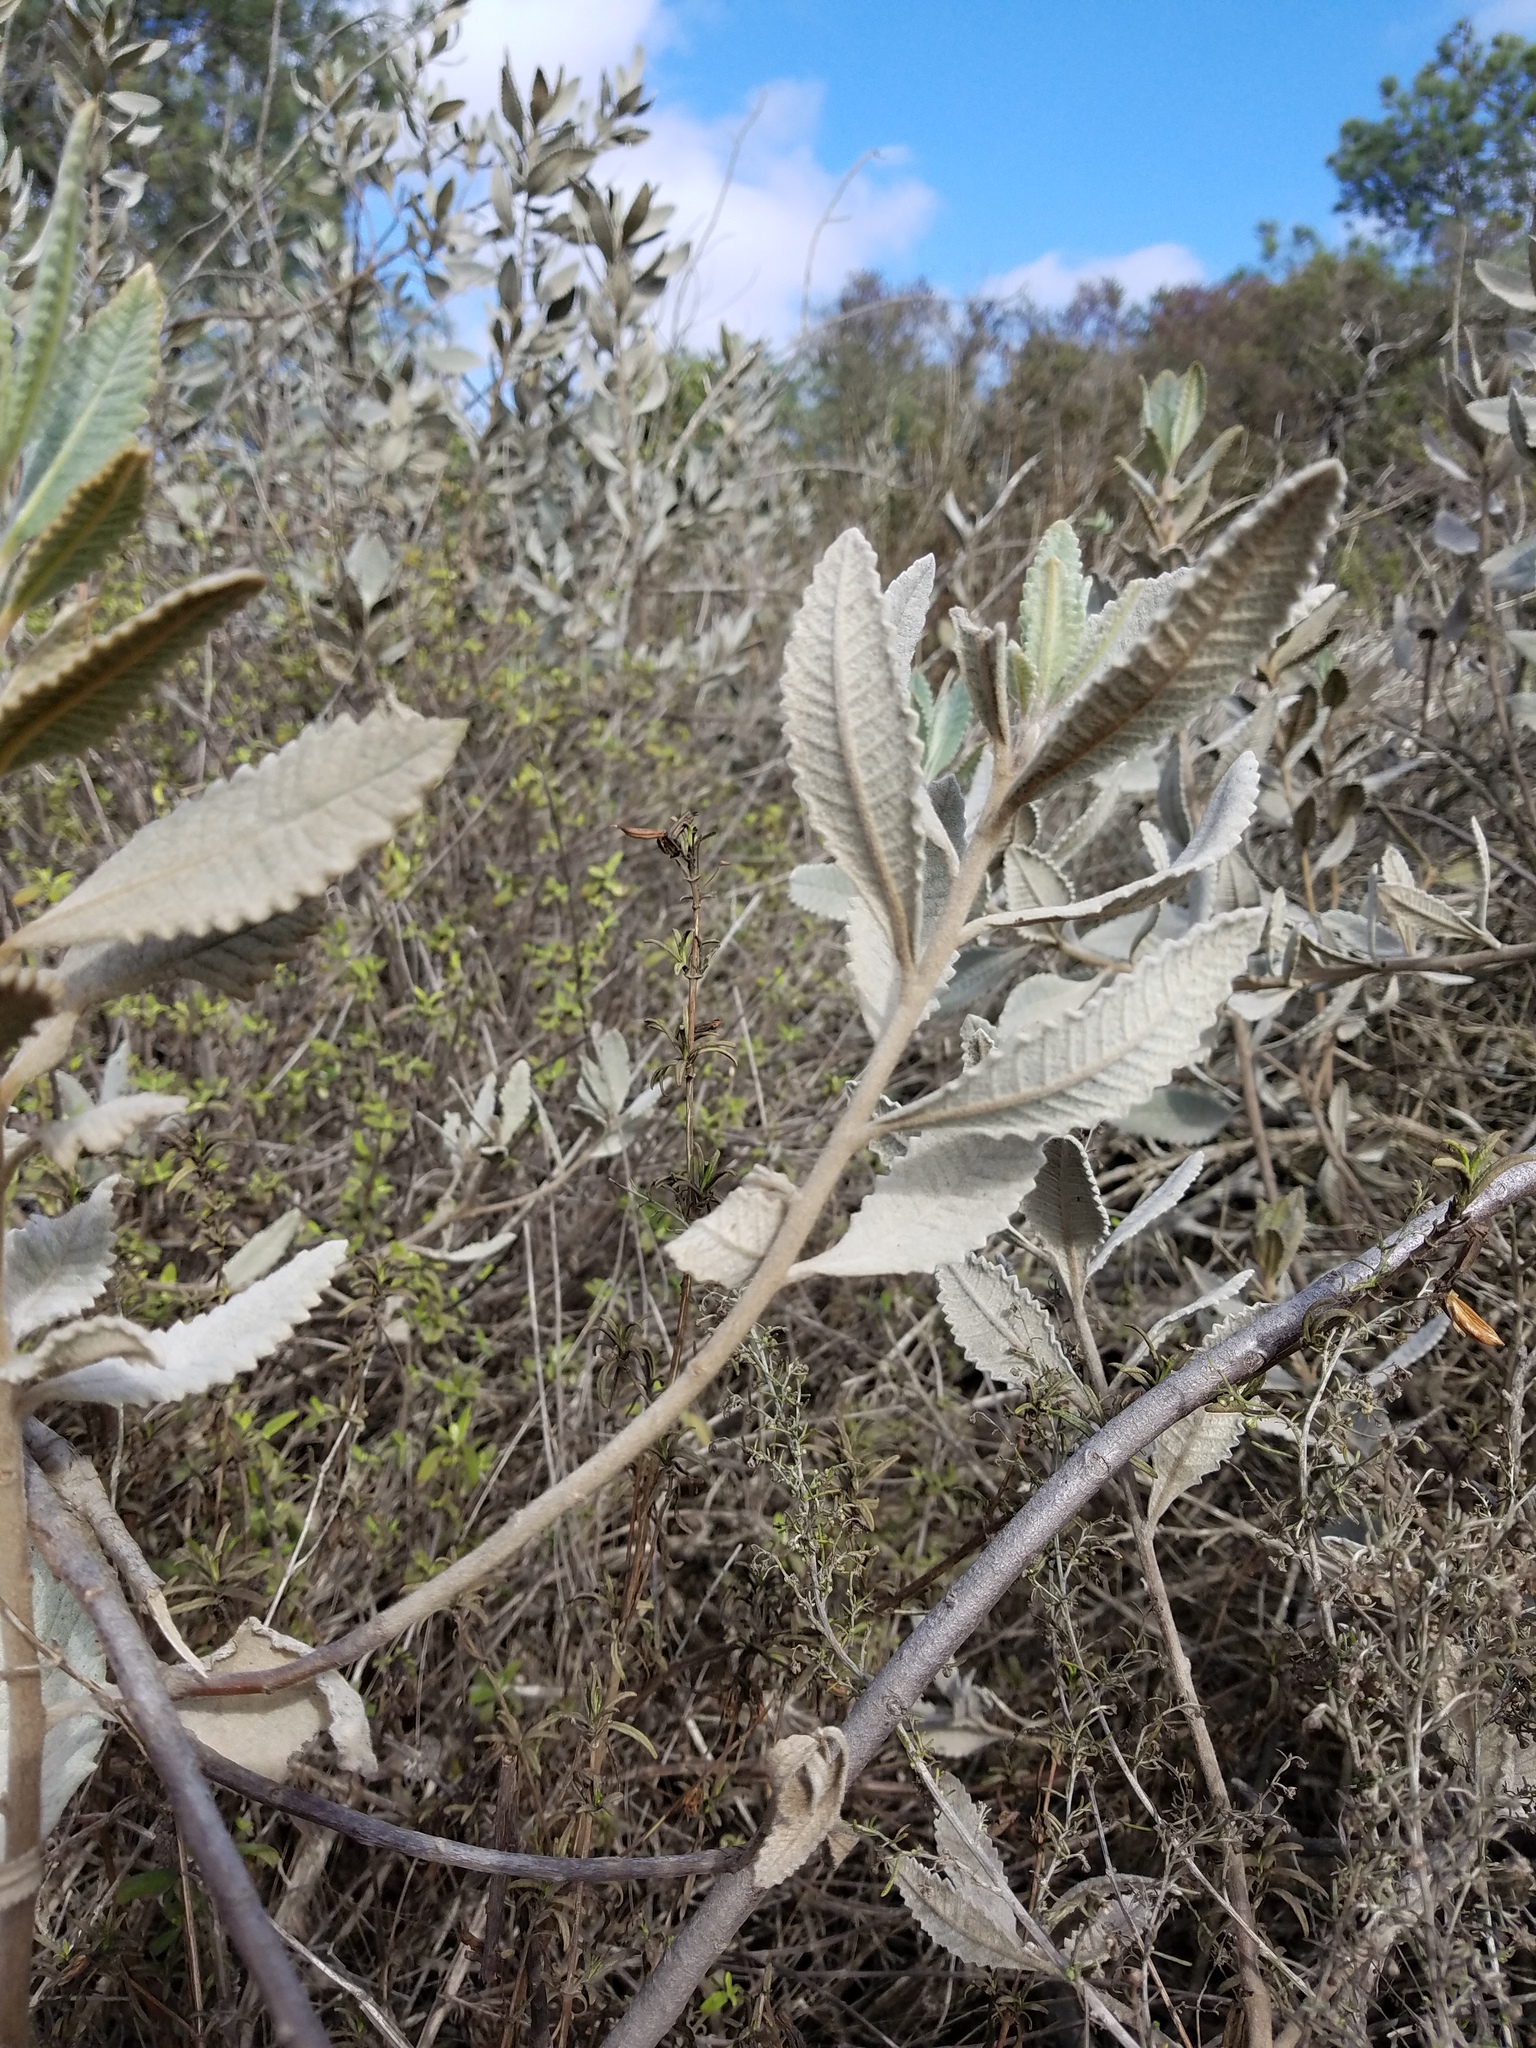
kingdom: Plantae
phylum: Tracheophyta
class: Magnoliopsida
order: Boraginales
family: Namaceae
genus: Eriodictyon
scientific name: Eriodictyon crassifolium
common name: Thick-leaf yerba-santa
